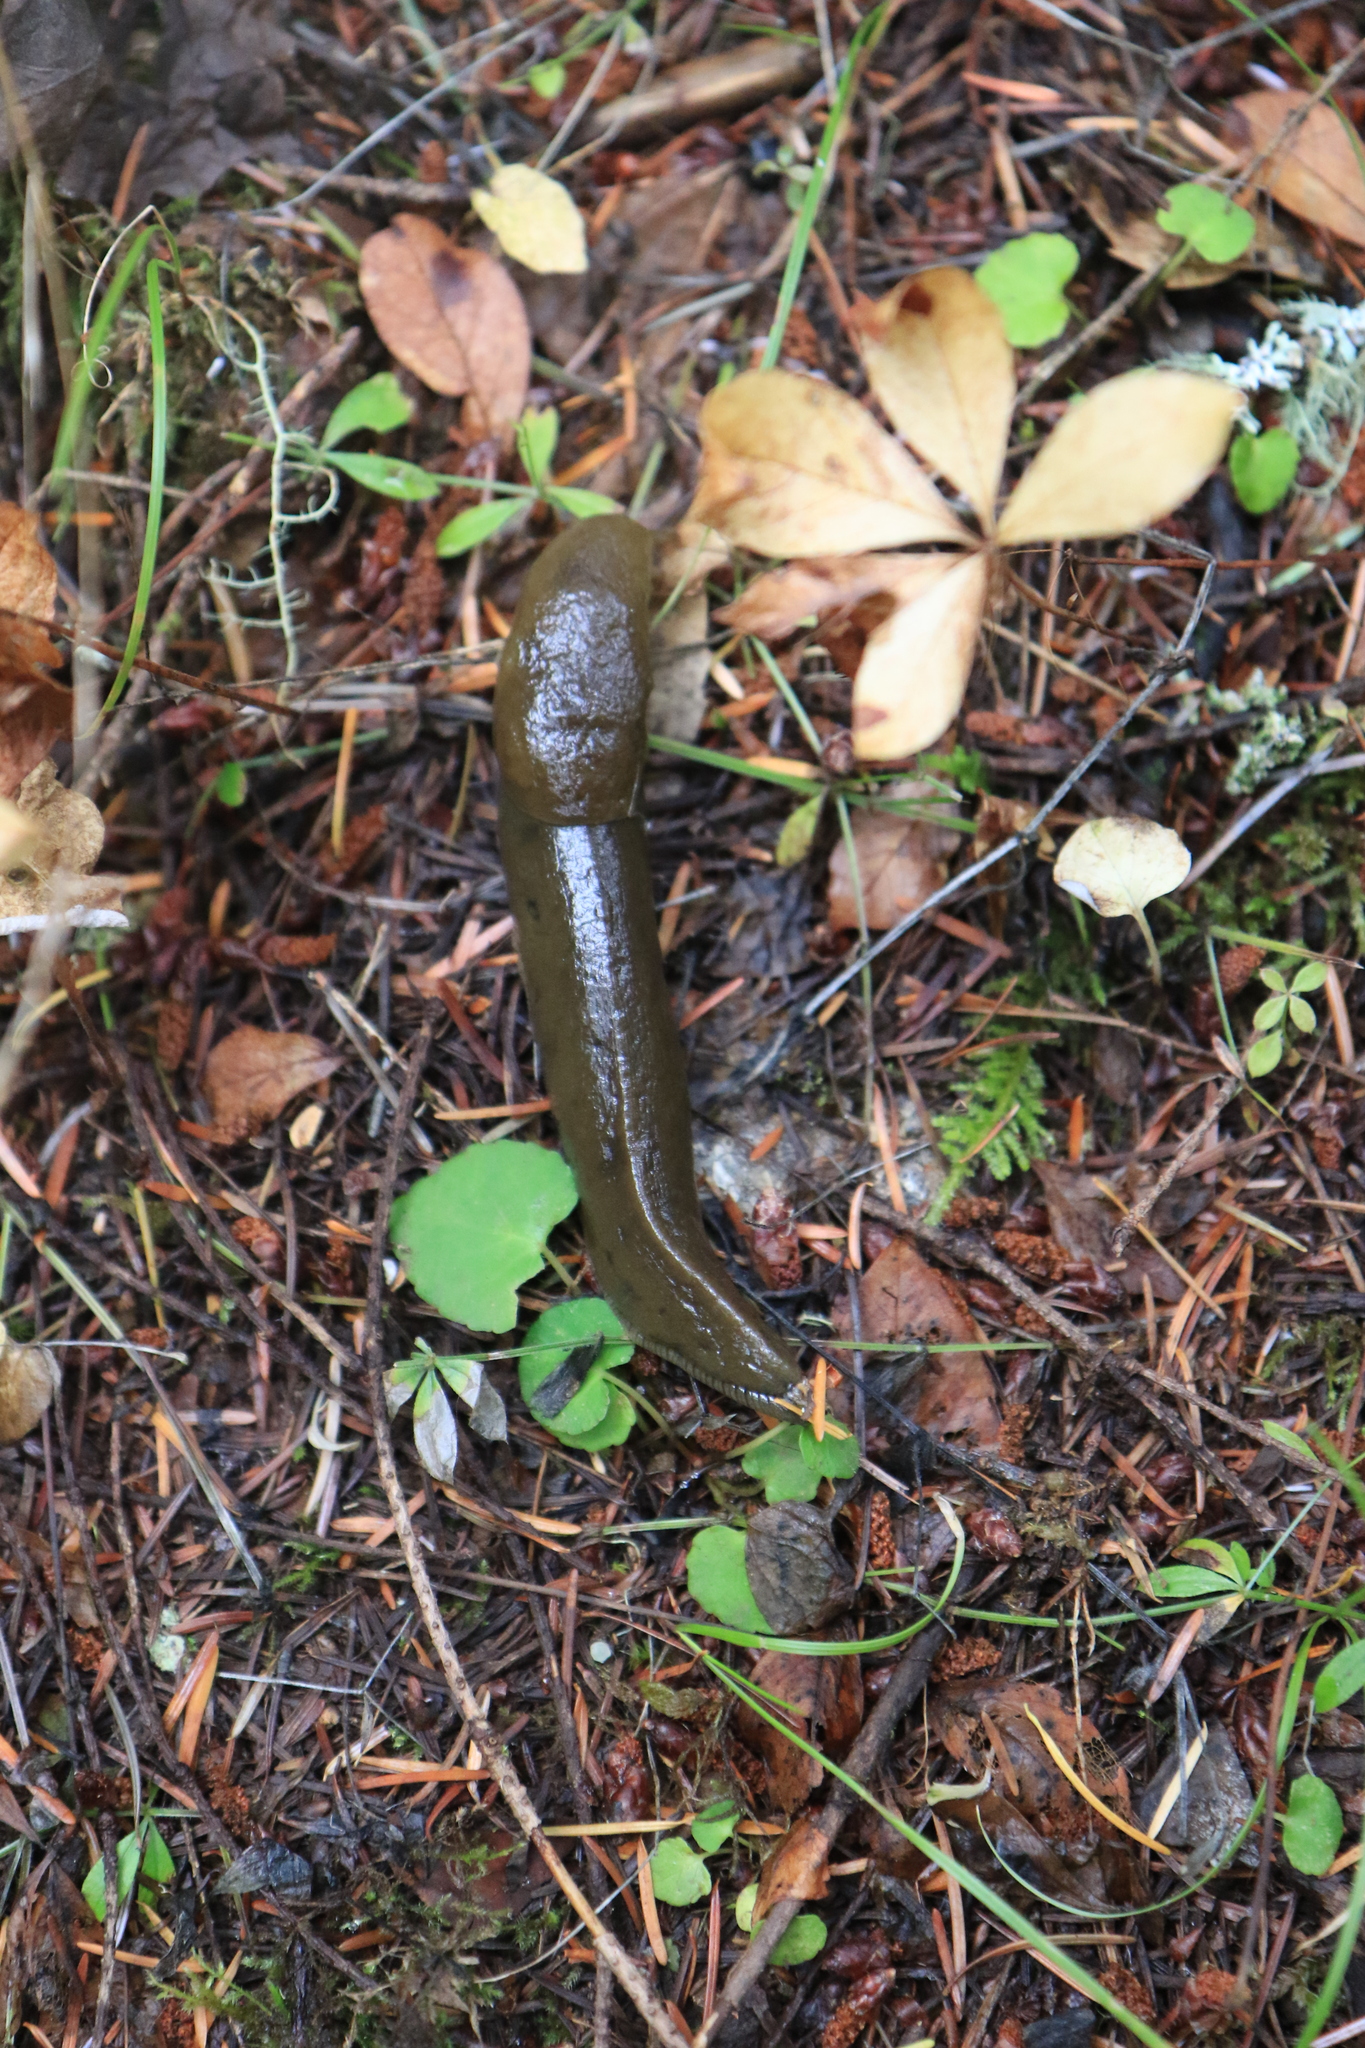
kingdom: Animalia
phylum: Mollusca
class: Gastropoda
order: Stylommatophora
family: Ariolimacidae
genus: Ariolimax
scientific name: Ariolimax columbianus
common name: Pacific banana slug
